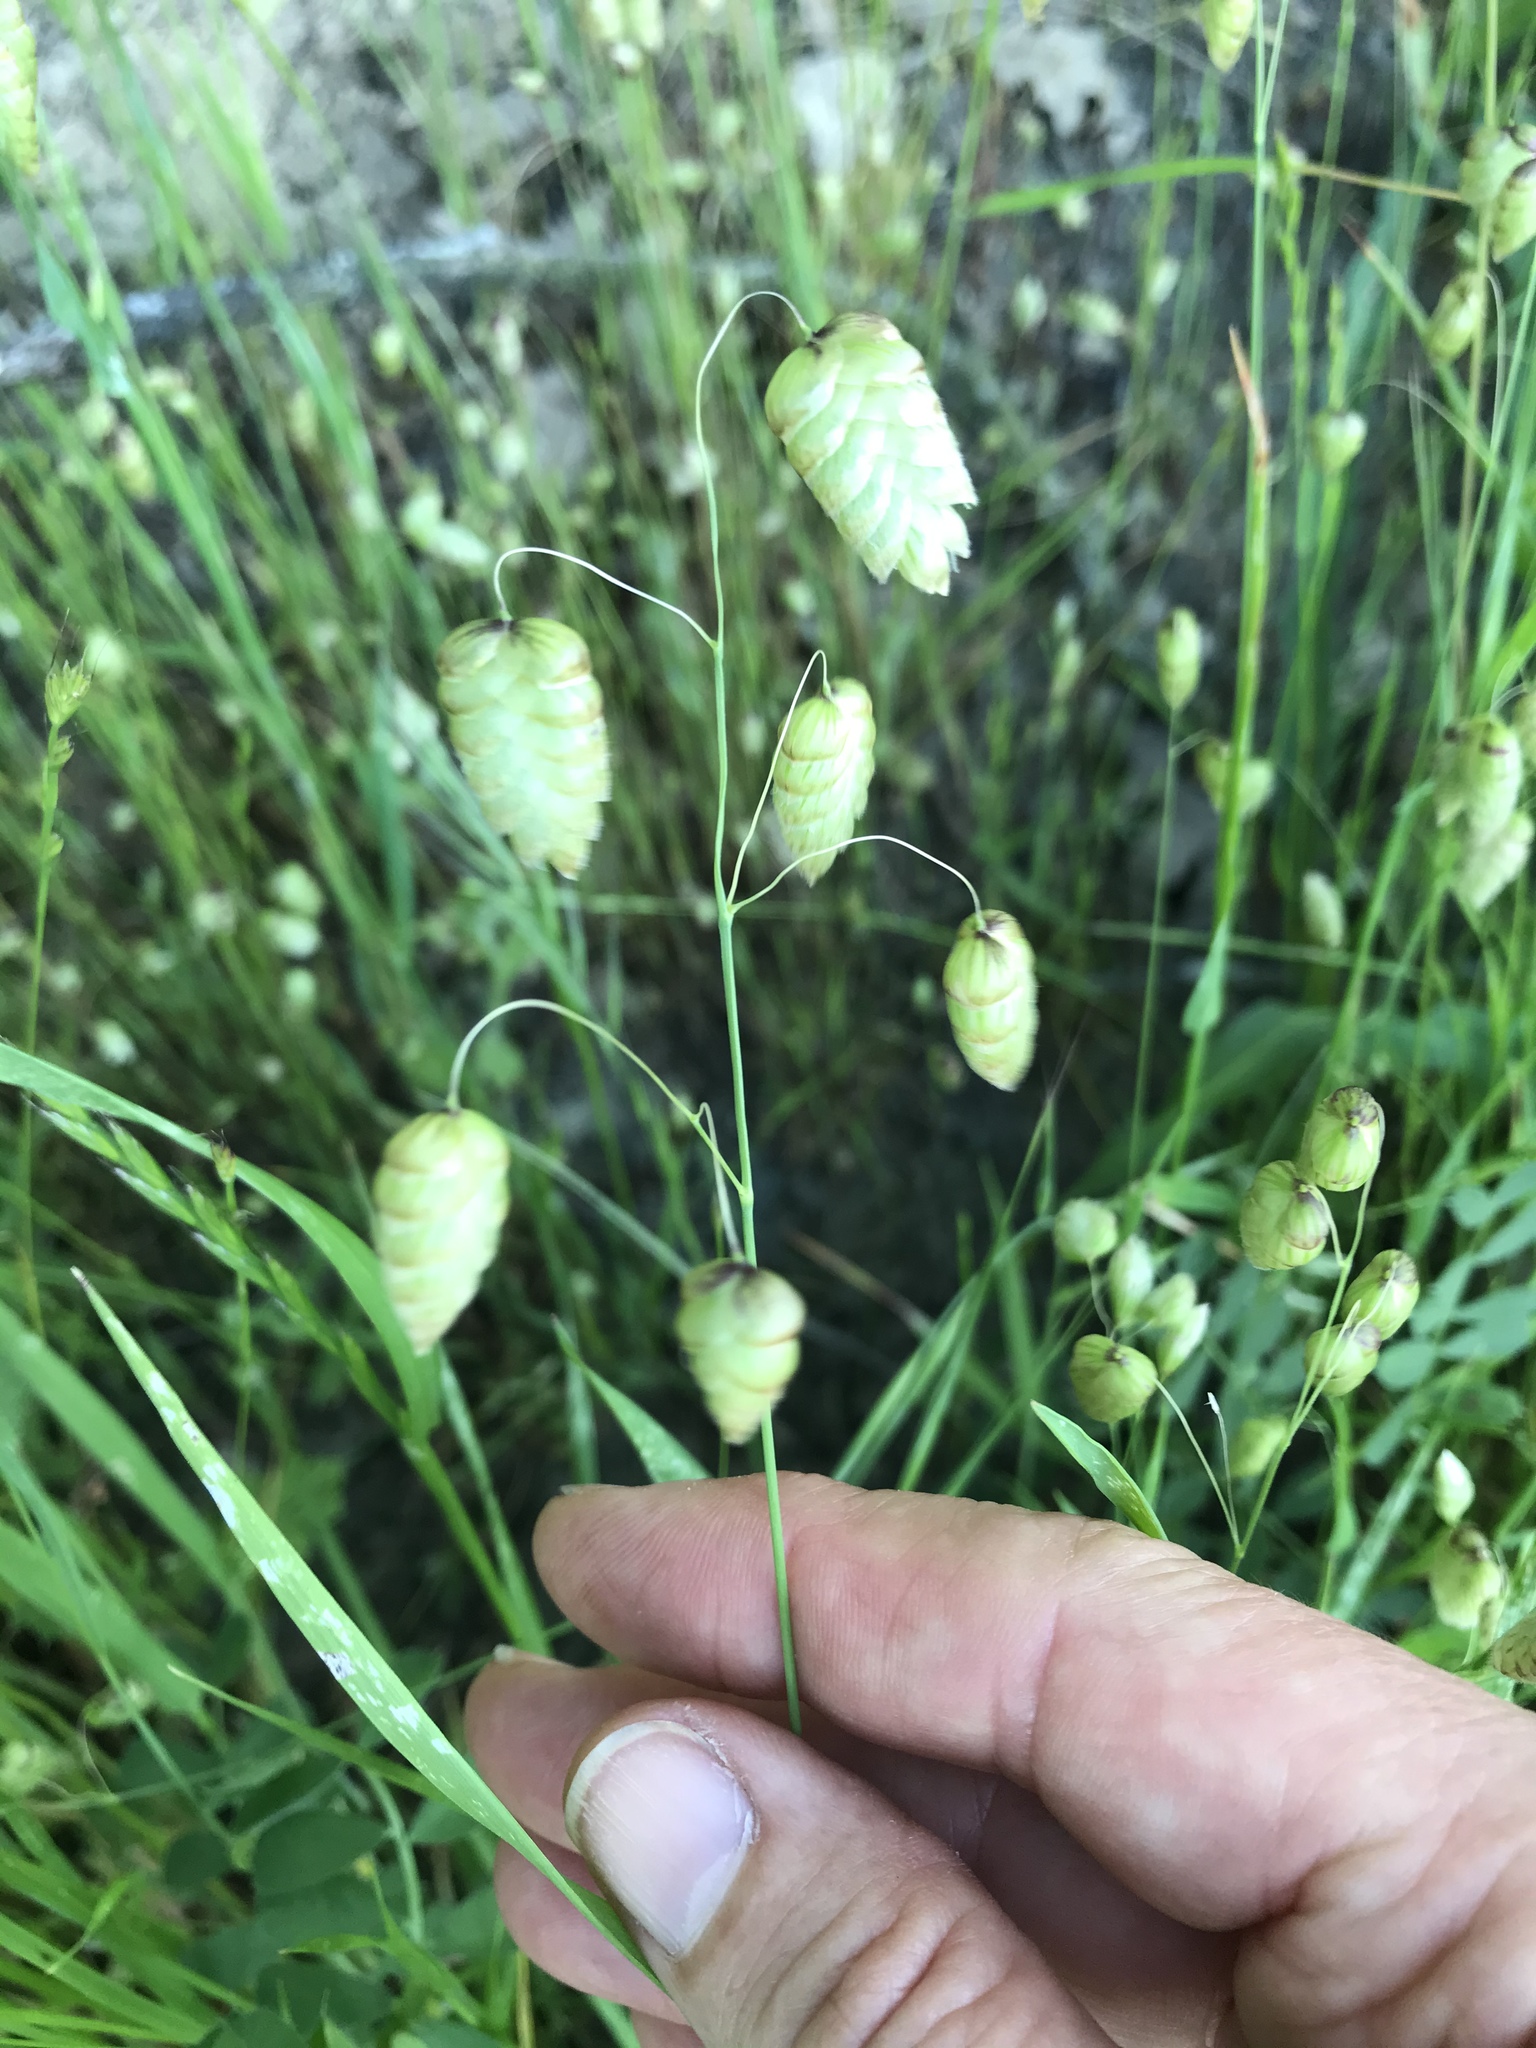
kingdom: Plantae
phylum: Tracheophyta
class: Liliopsida
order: Poales
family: Poaceae
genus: Briza
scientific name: Briza maxima
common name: Big quakinggrass
